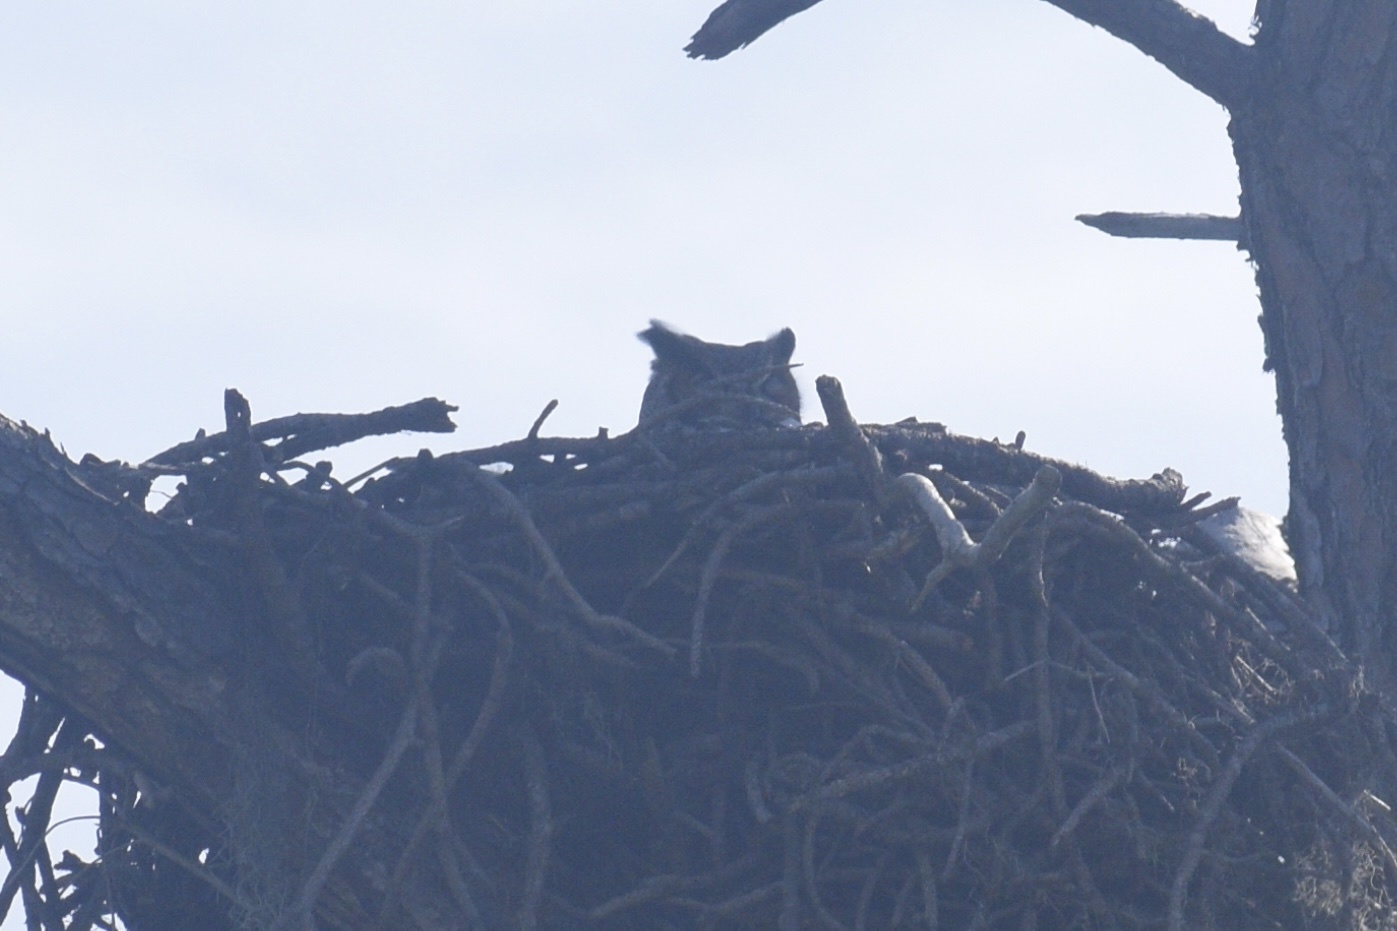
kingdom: Animalia
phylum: Chordata
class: Aves
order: Strigiformes
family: Strigidae
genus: Bubo
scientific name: Bubo virginianus
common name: Great horned owl
